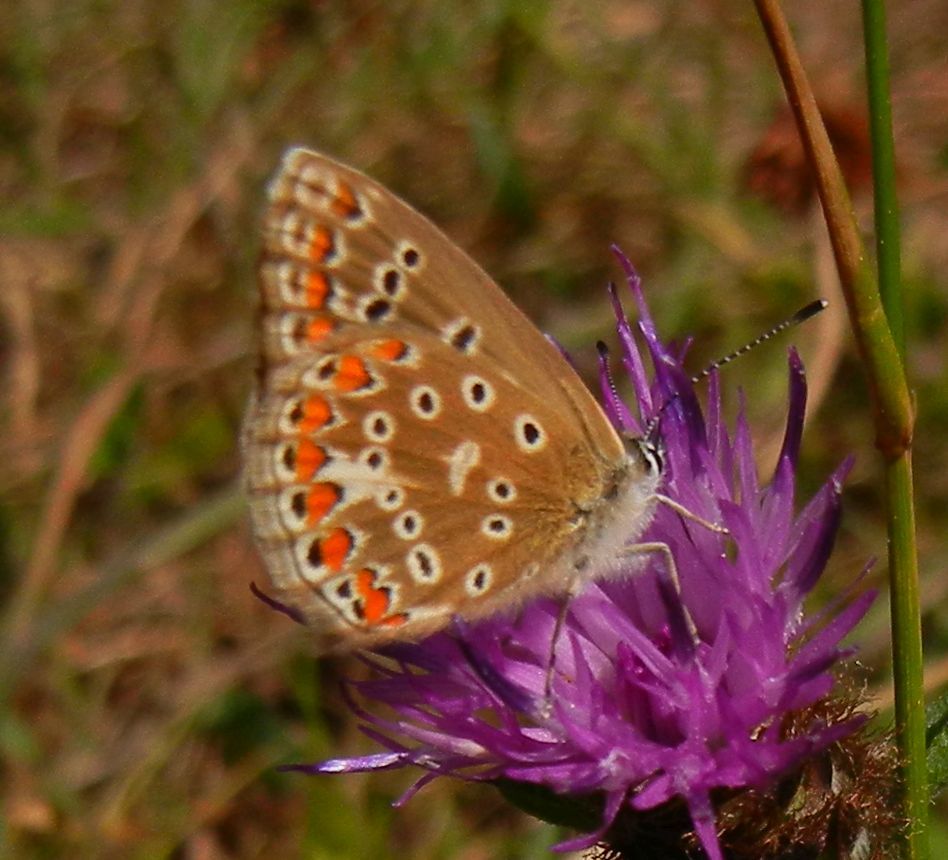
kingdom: Animalia
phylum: Arthropoda
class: Insecta
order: Lepidoptera
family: Lycaenidae
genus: Polyommatus
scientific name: Polyommatus icarus
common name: Common blue
